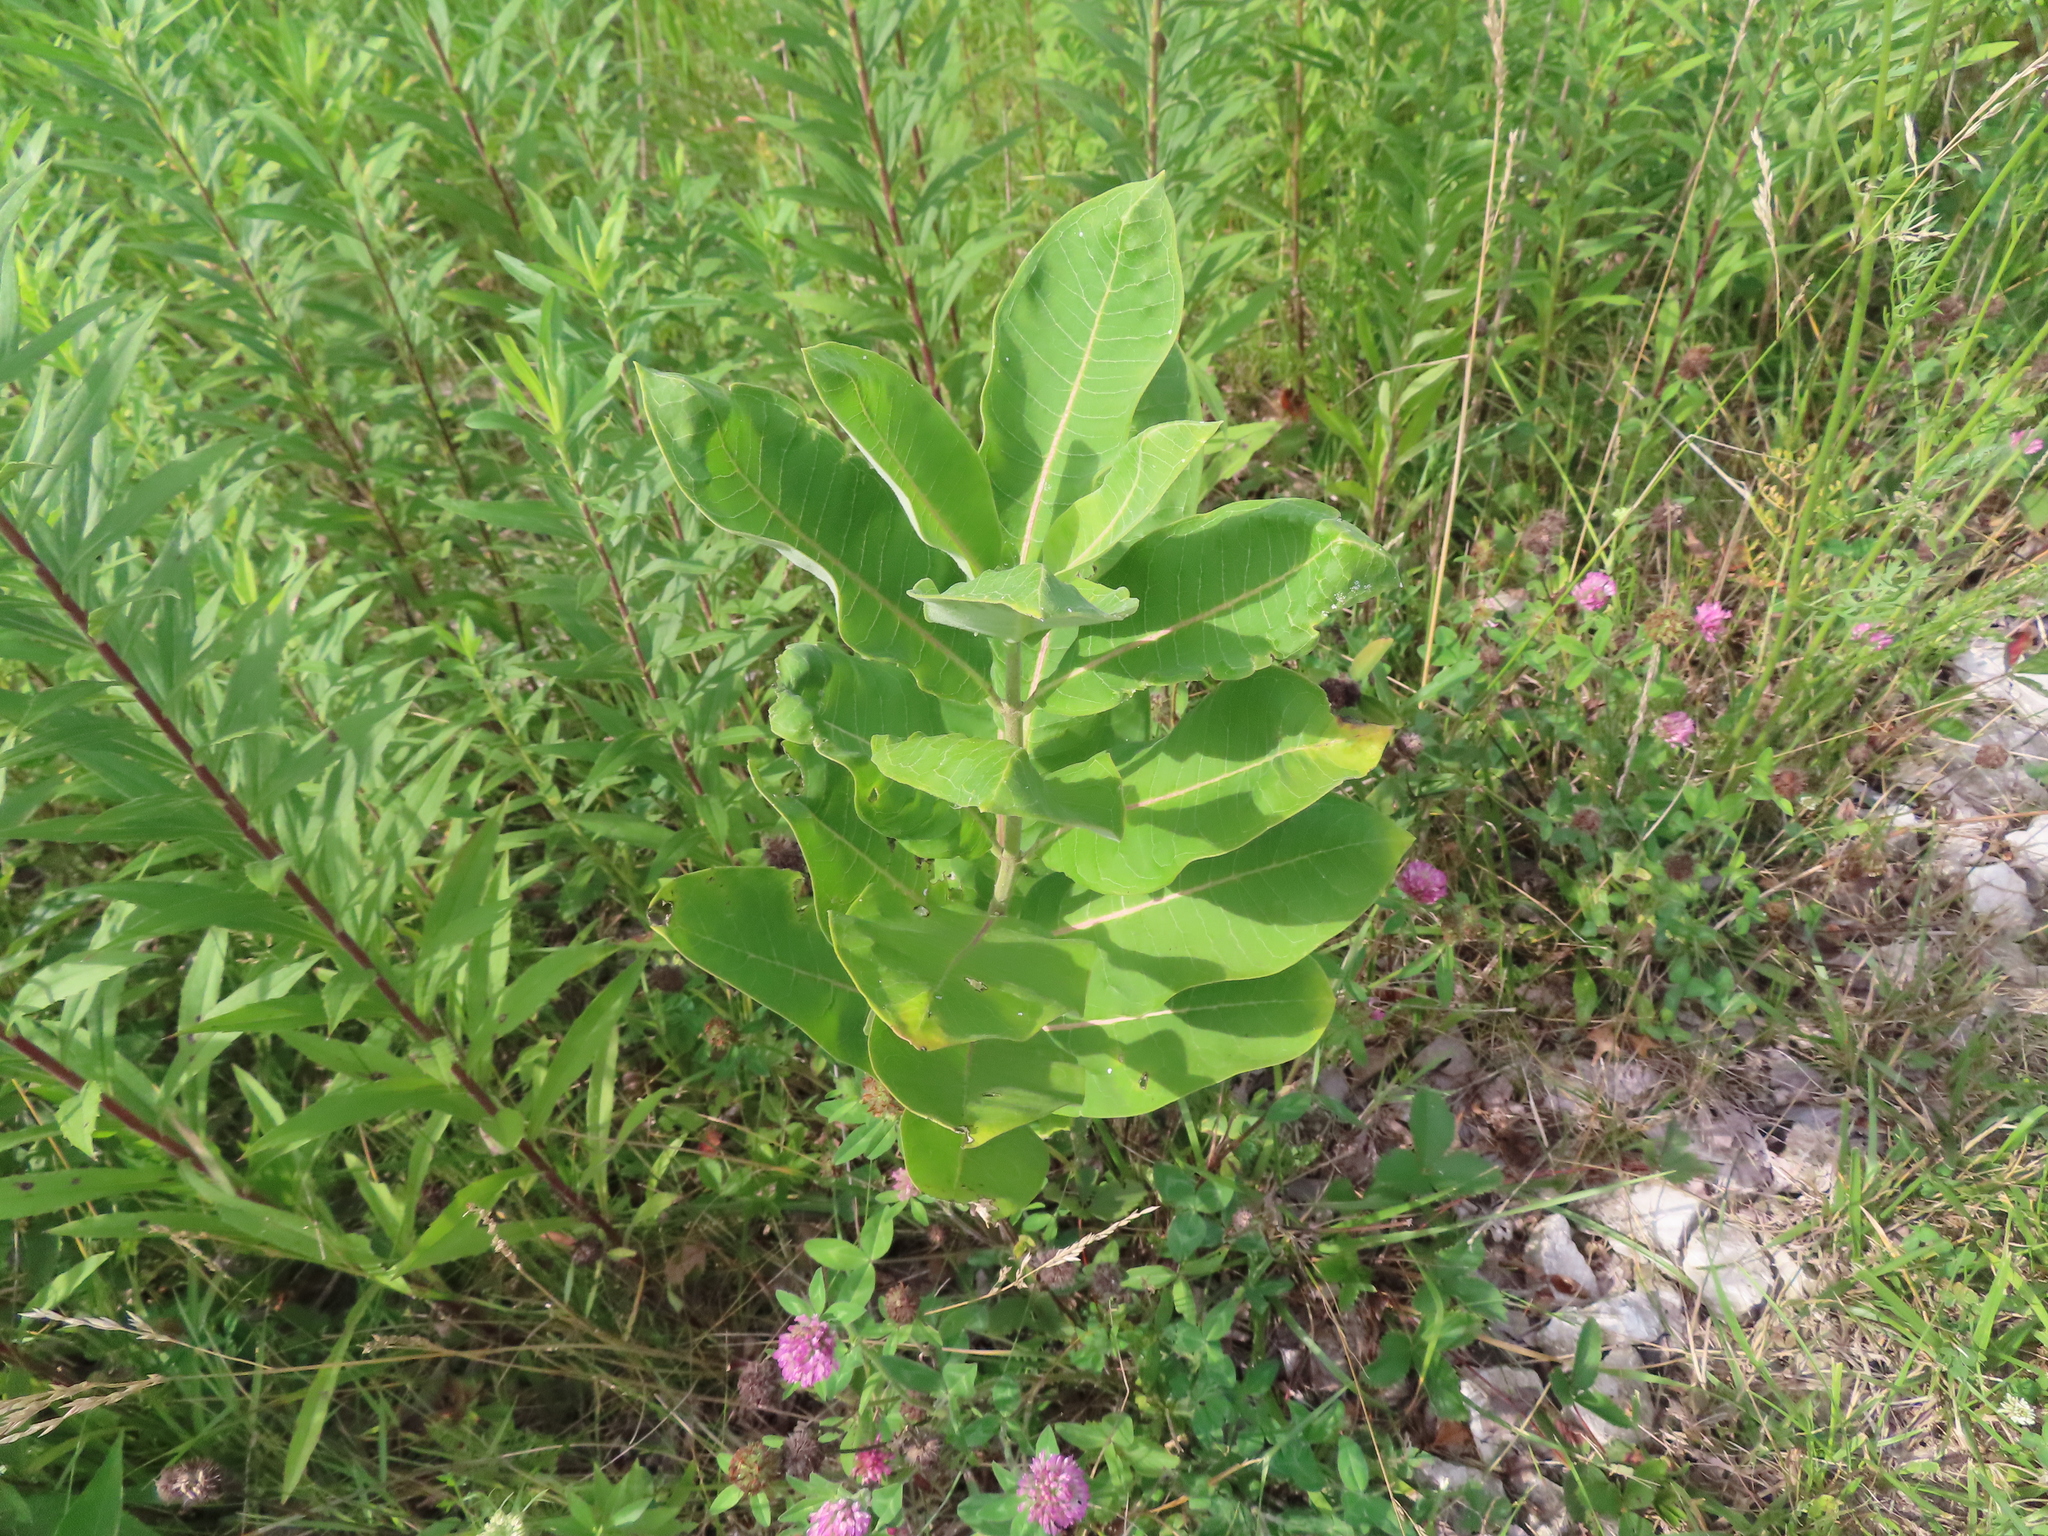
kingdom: Plantae
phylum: Tracheophyta
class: Magnoliopsida
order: Gentianales
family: Apocynaceae
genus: Asclepias
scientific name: Asclepias syriaca
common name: Common milkweed
